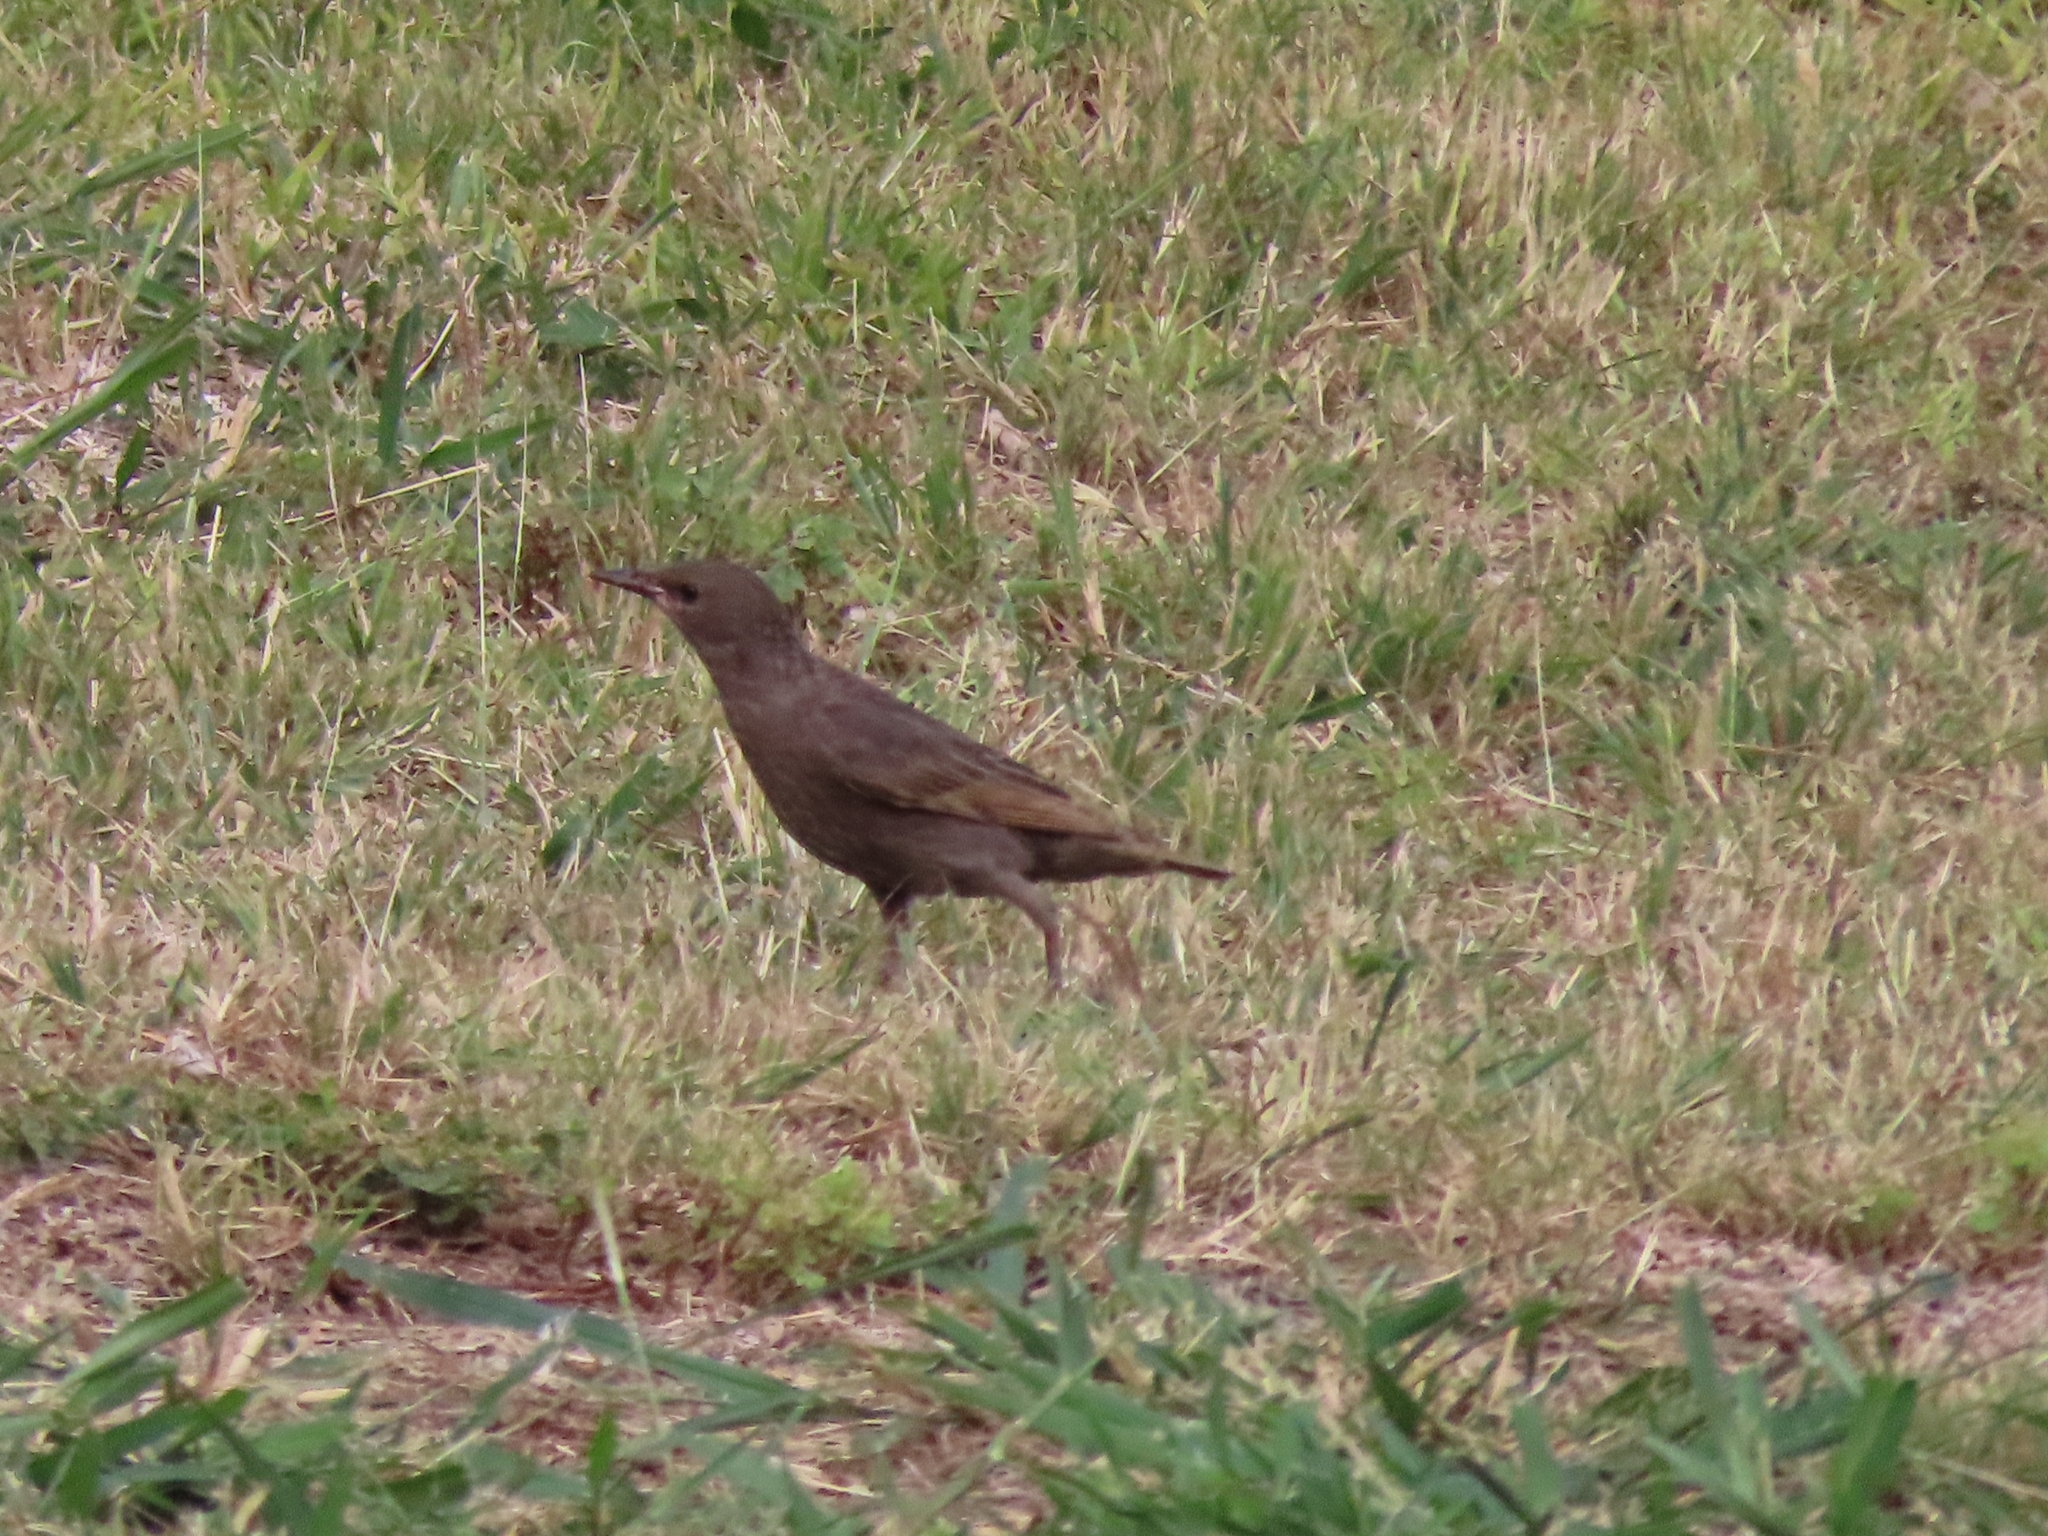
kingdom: Animalia
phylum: Chordata
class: Aves
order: Passeriformes
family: Sturnidae
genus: Sturnus
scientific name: Sturnus vulgaris
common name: Common starling
